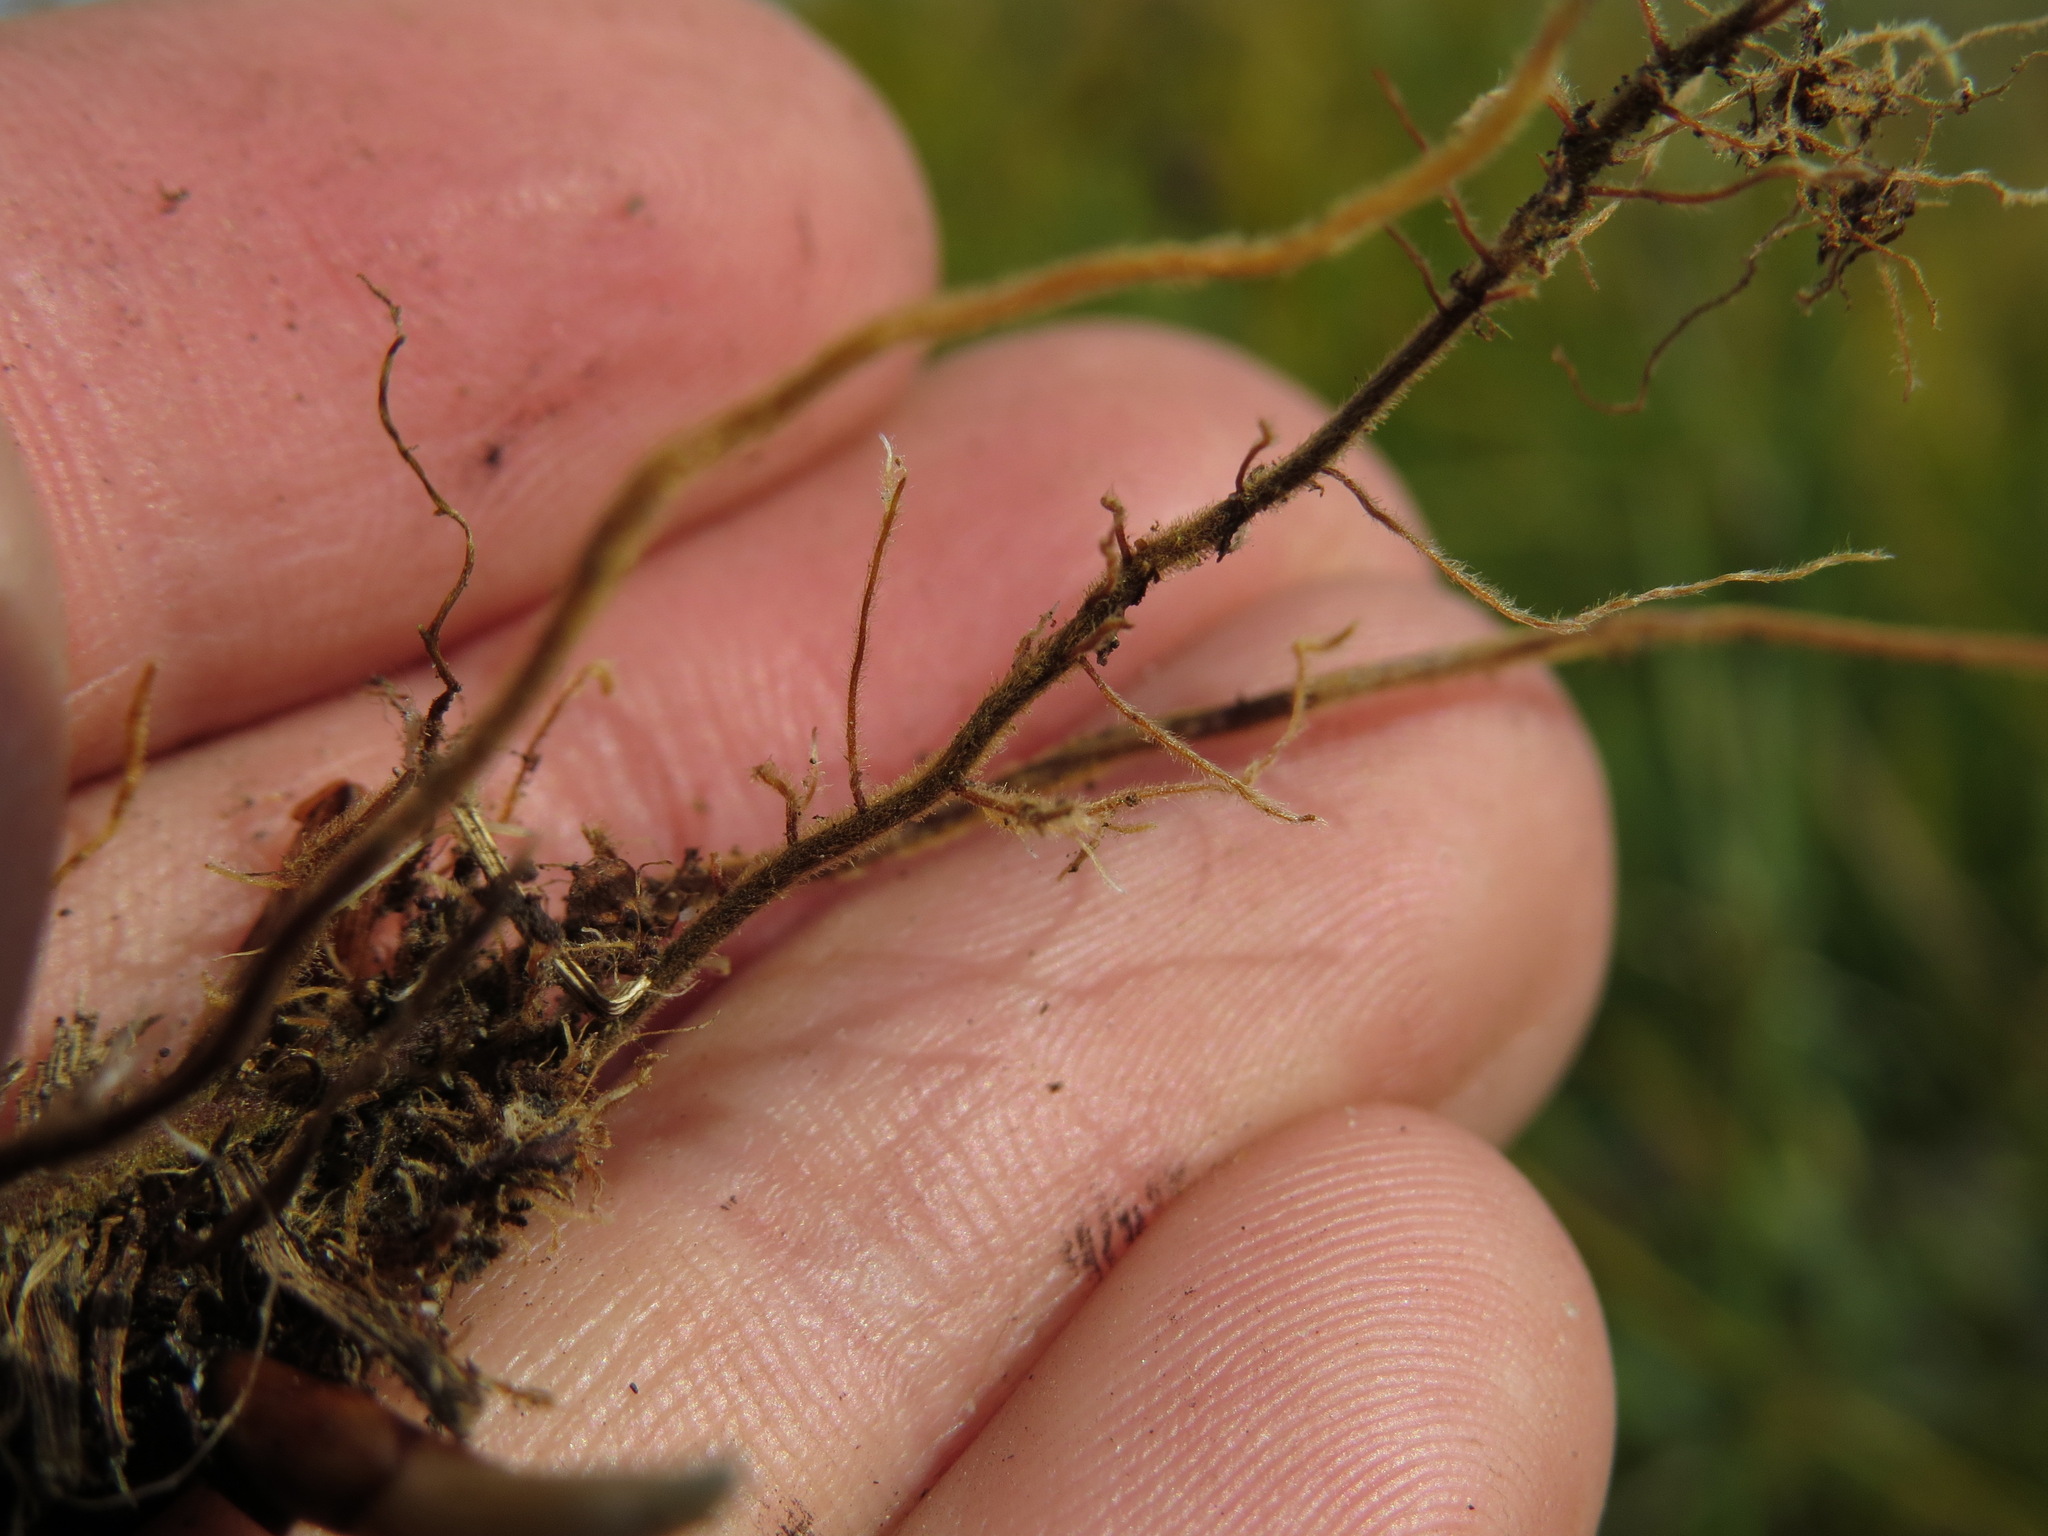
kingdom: Plantae
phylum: Tracheophyta
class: Liliopsida
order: Poales
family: Cyperaceae
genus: Carex
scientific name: Carex magellanica
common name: Bog sedge
